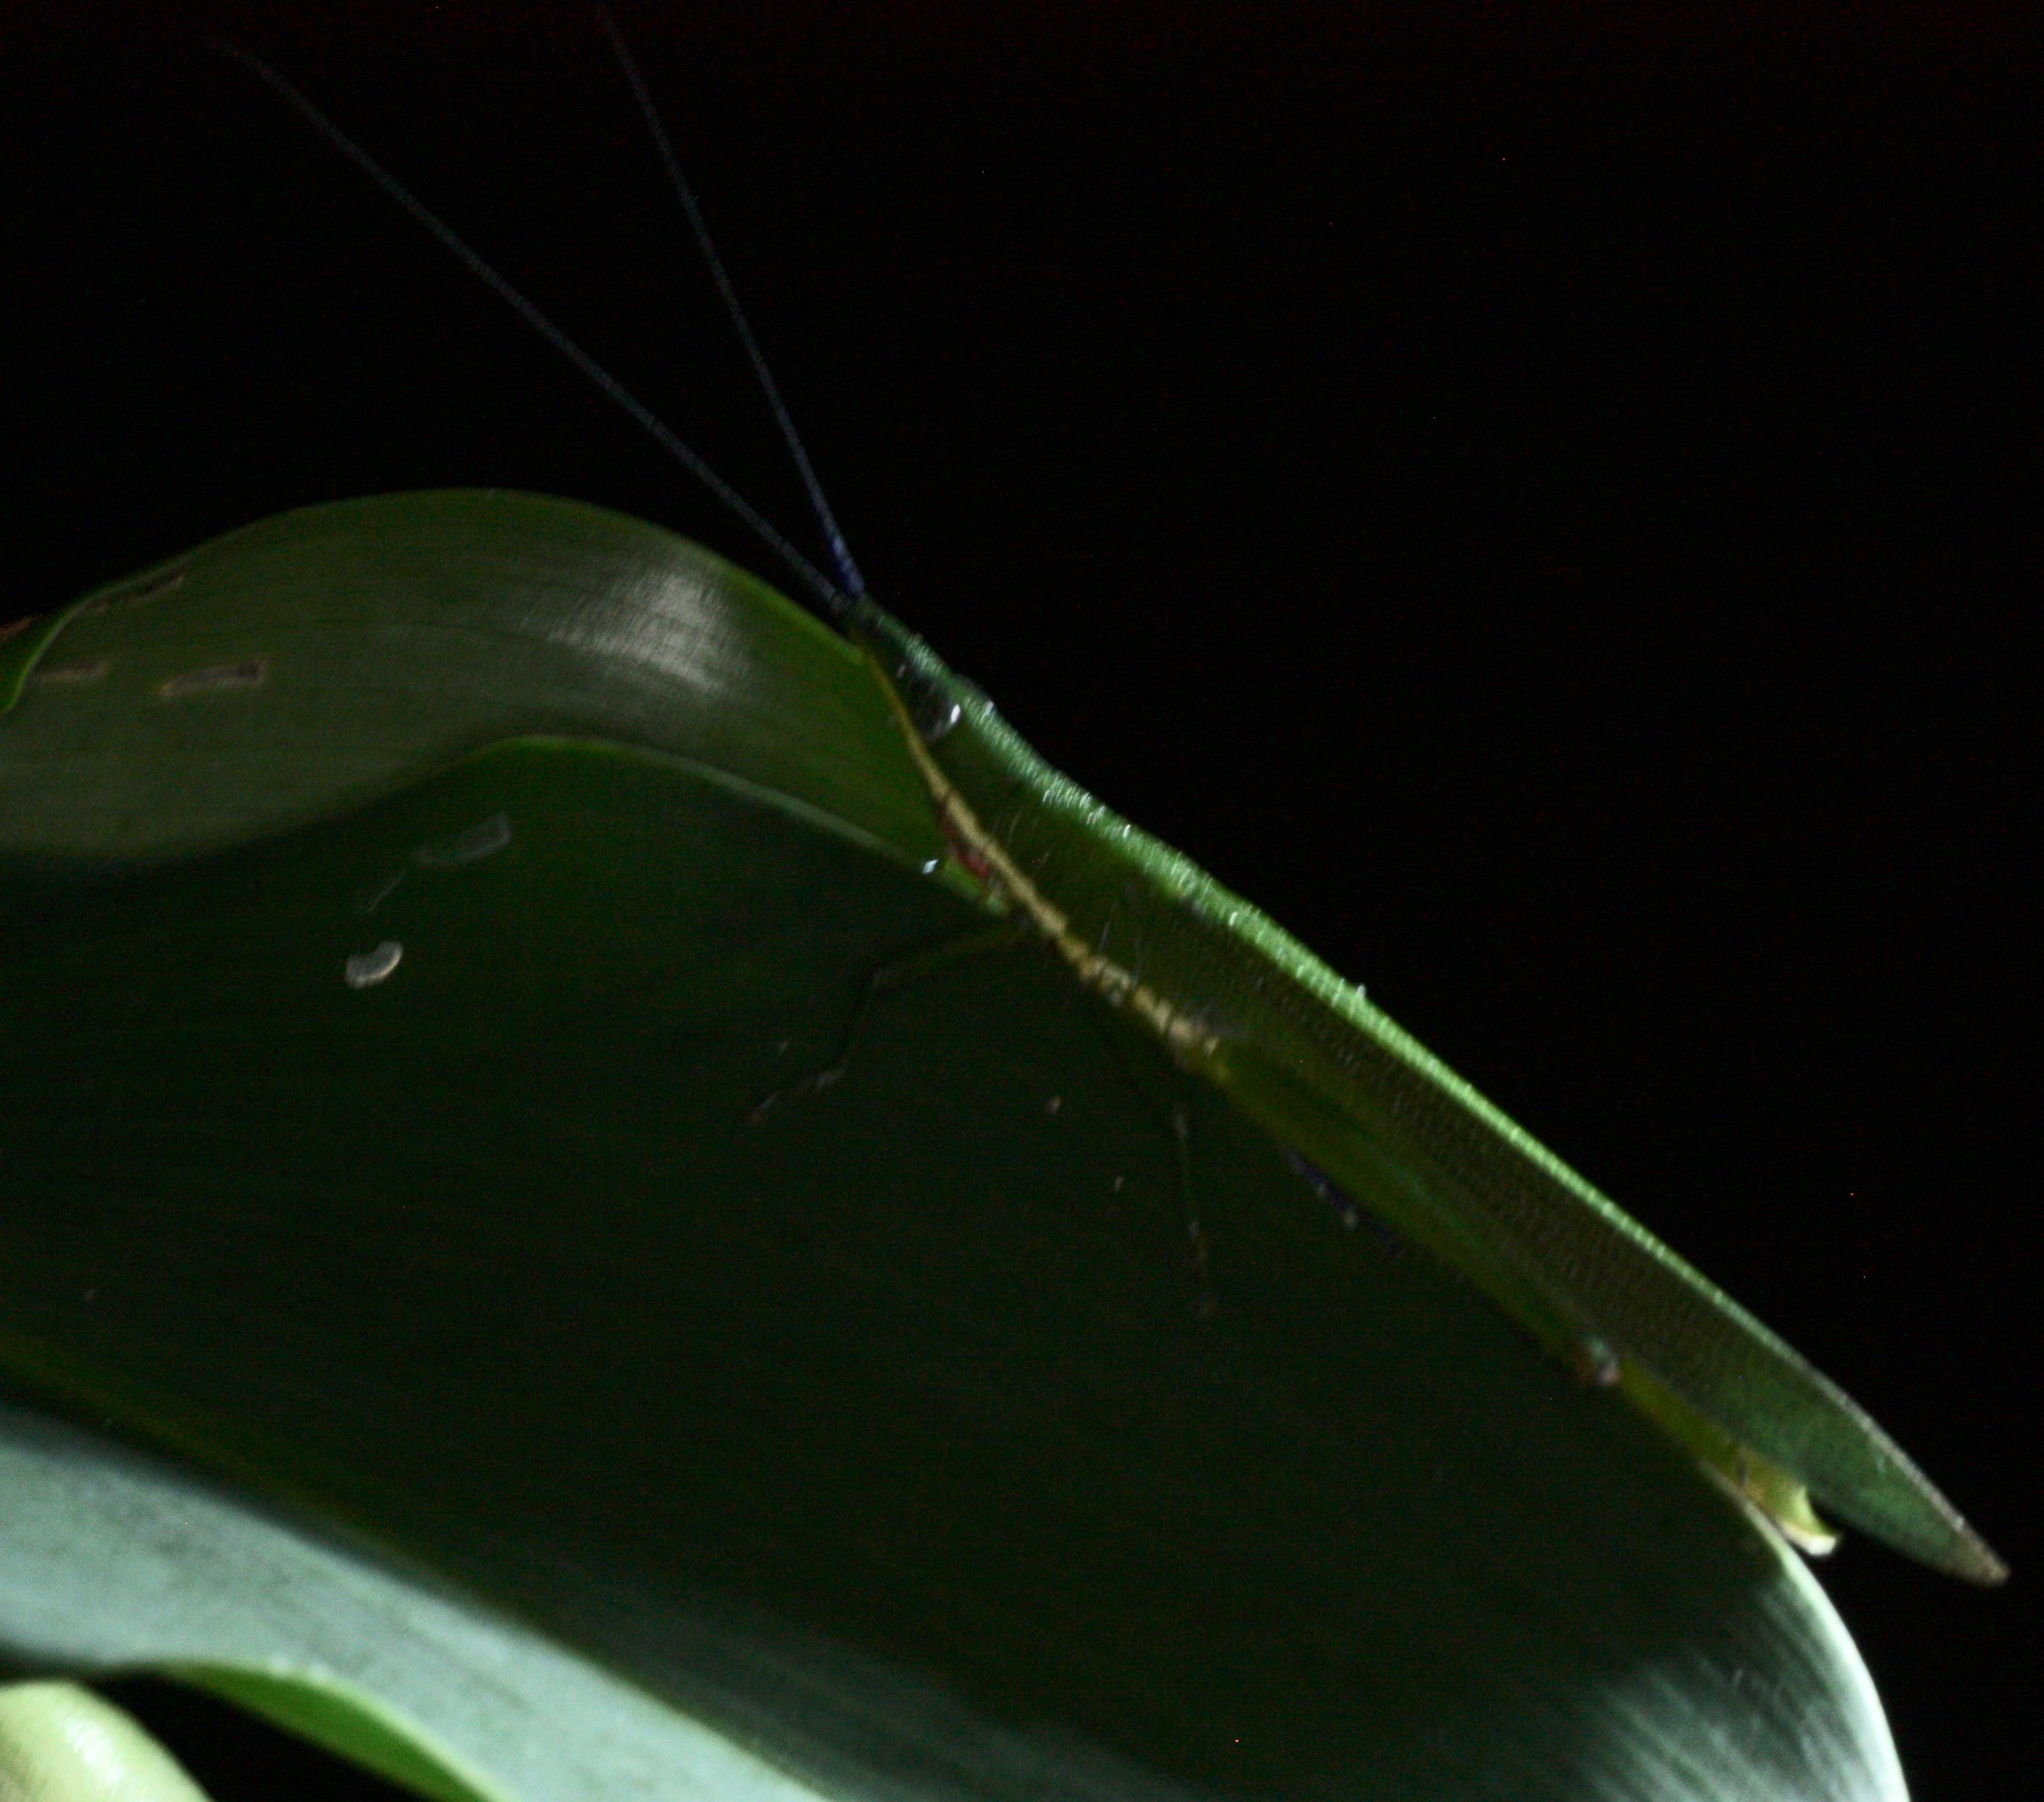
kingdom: Animalia
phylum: Arthropoda
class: Insecta
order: Orthoptera
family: Romaleidae
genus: Legua
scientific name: Legua crenulata
